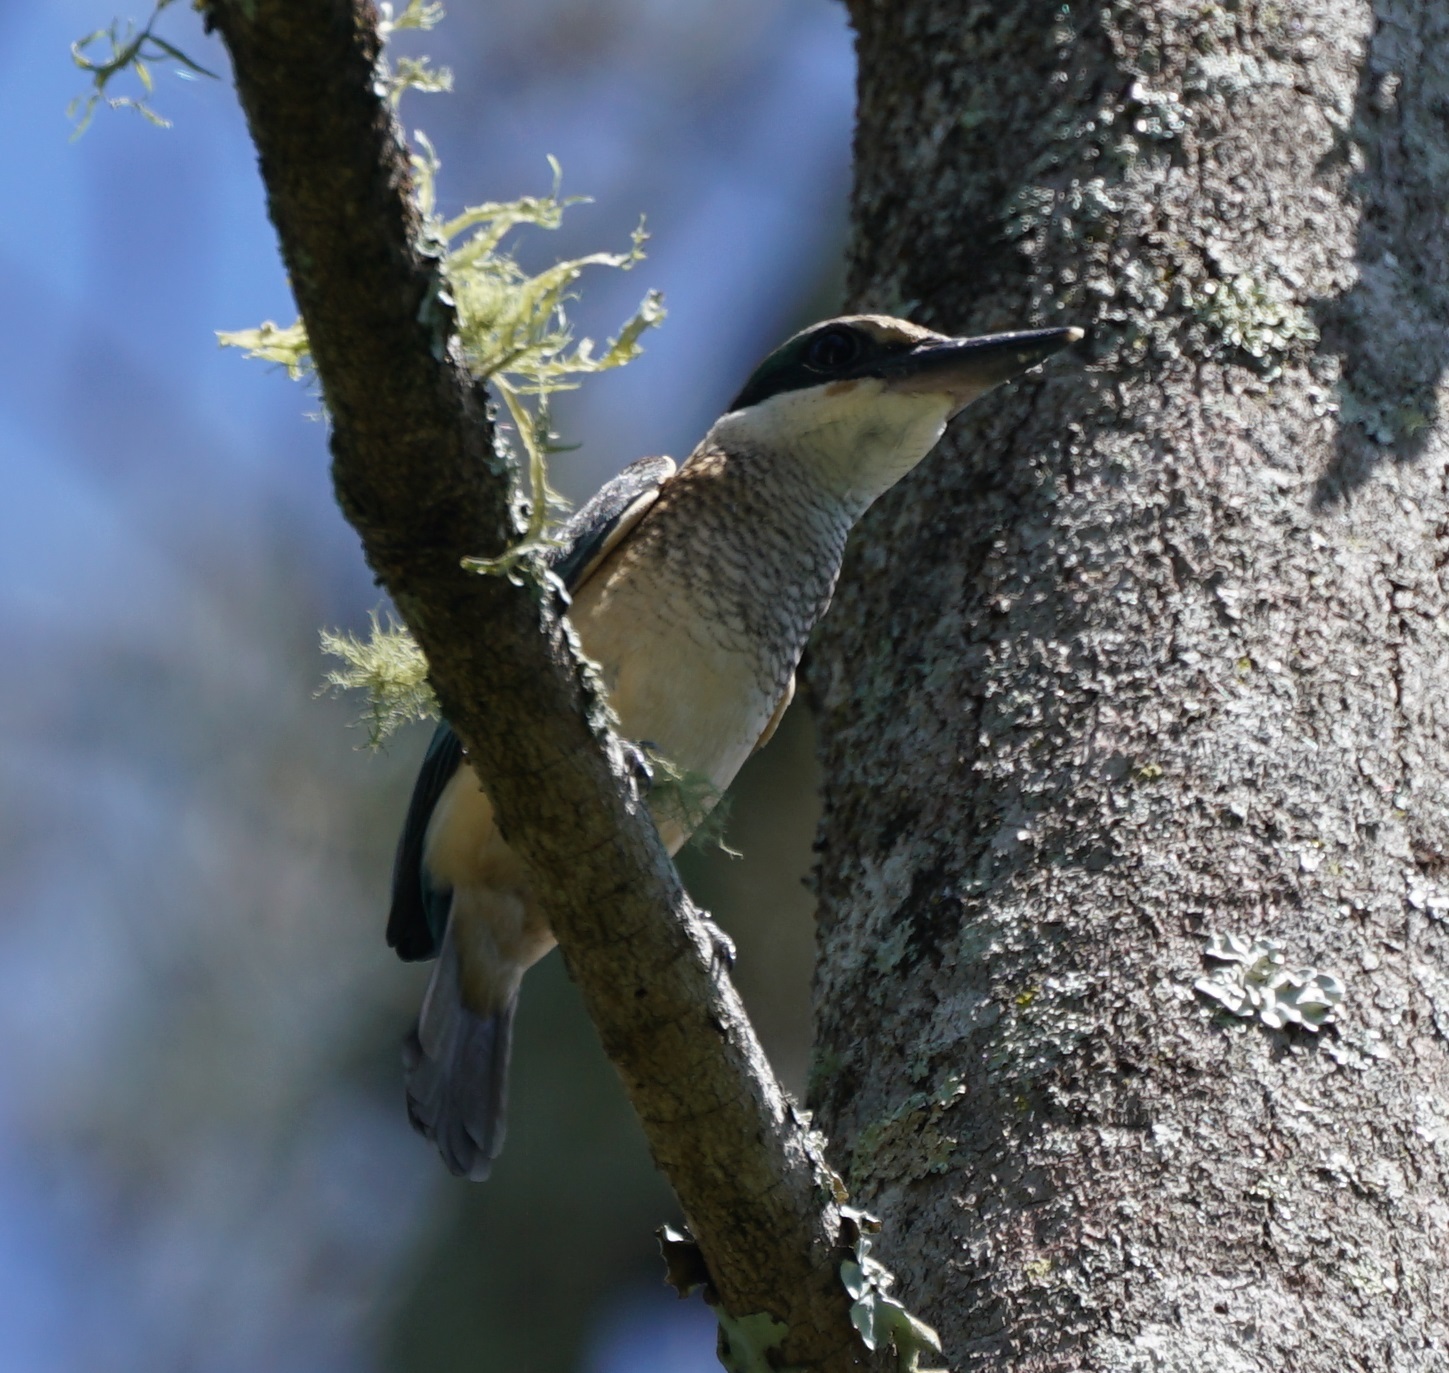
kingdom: Animalia
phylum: Chordata
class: Aves
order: Coraciiformes
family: Alcedinidae
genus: Todiramphus
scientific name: Todiramphus sanctus
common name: Sacred kingfisher
